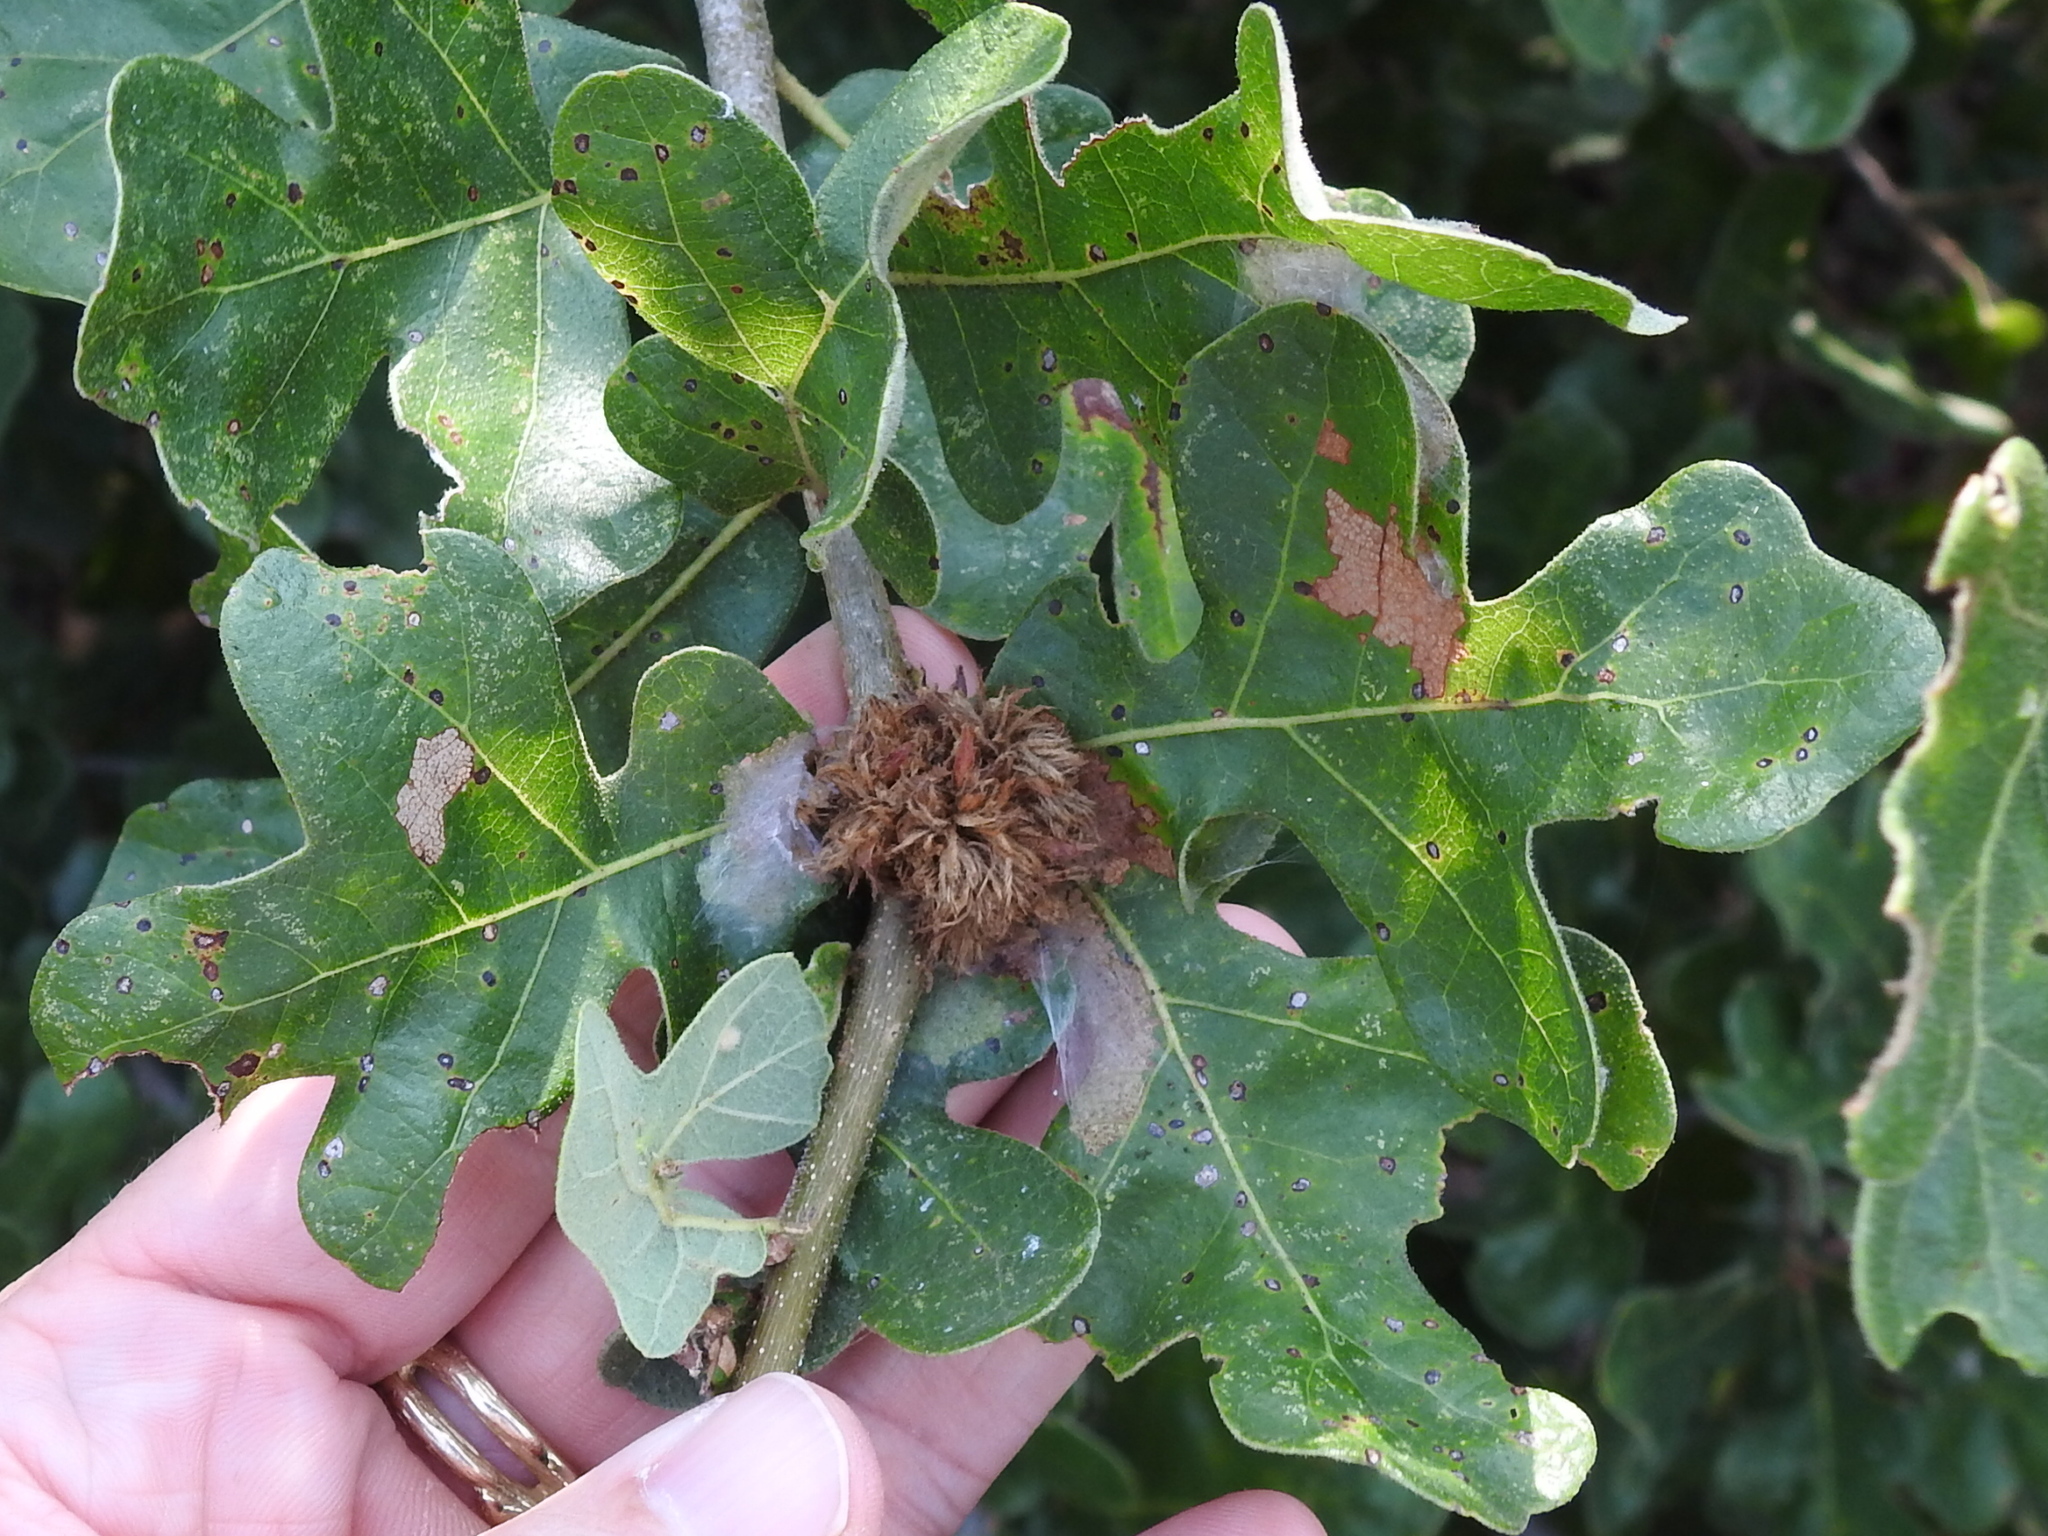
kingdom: Animalia
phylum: Arthropoda
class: Insecta
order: Hymenoptera
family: Cynipidae
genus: Andricus
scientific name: Andricus quercusfoliatus
